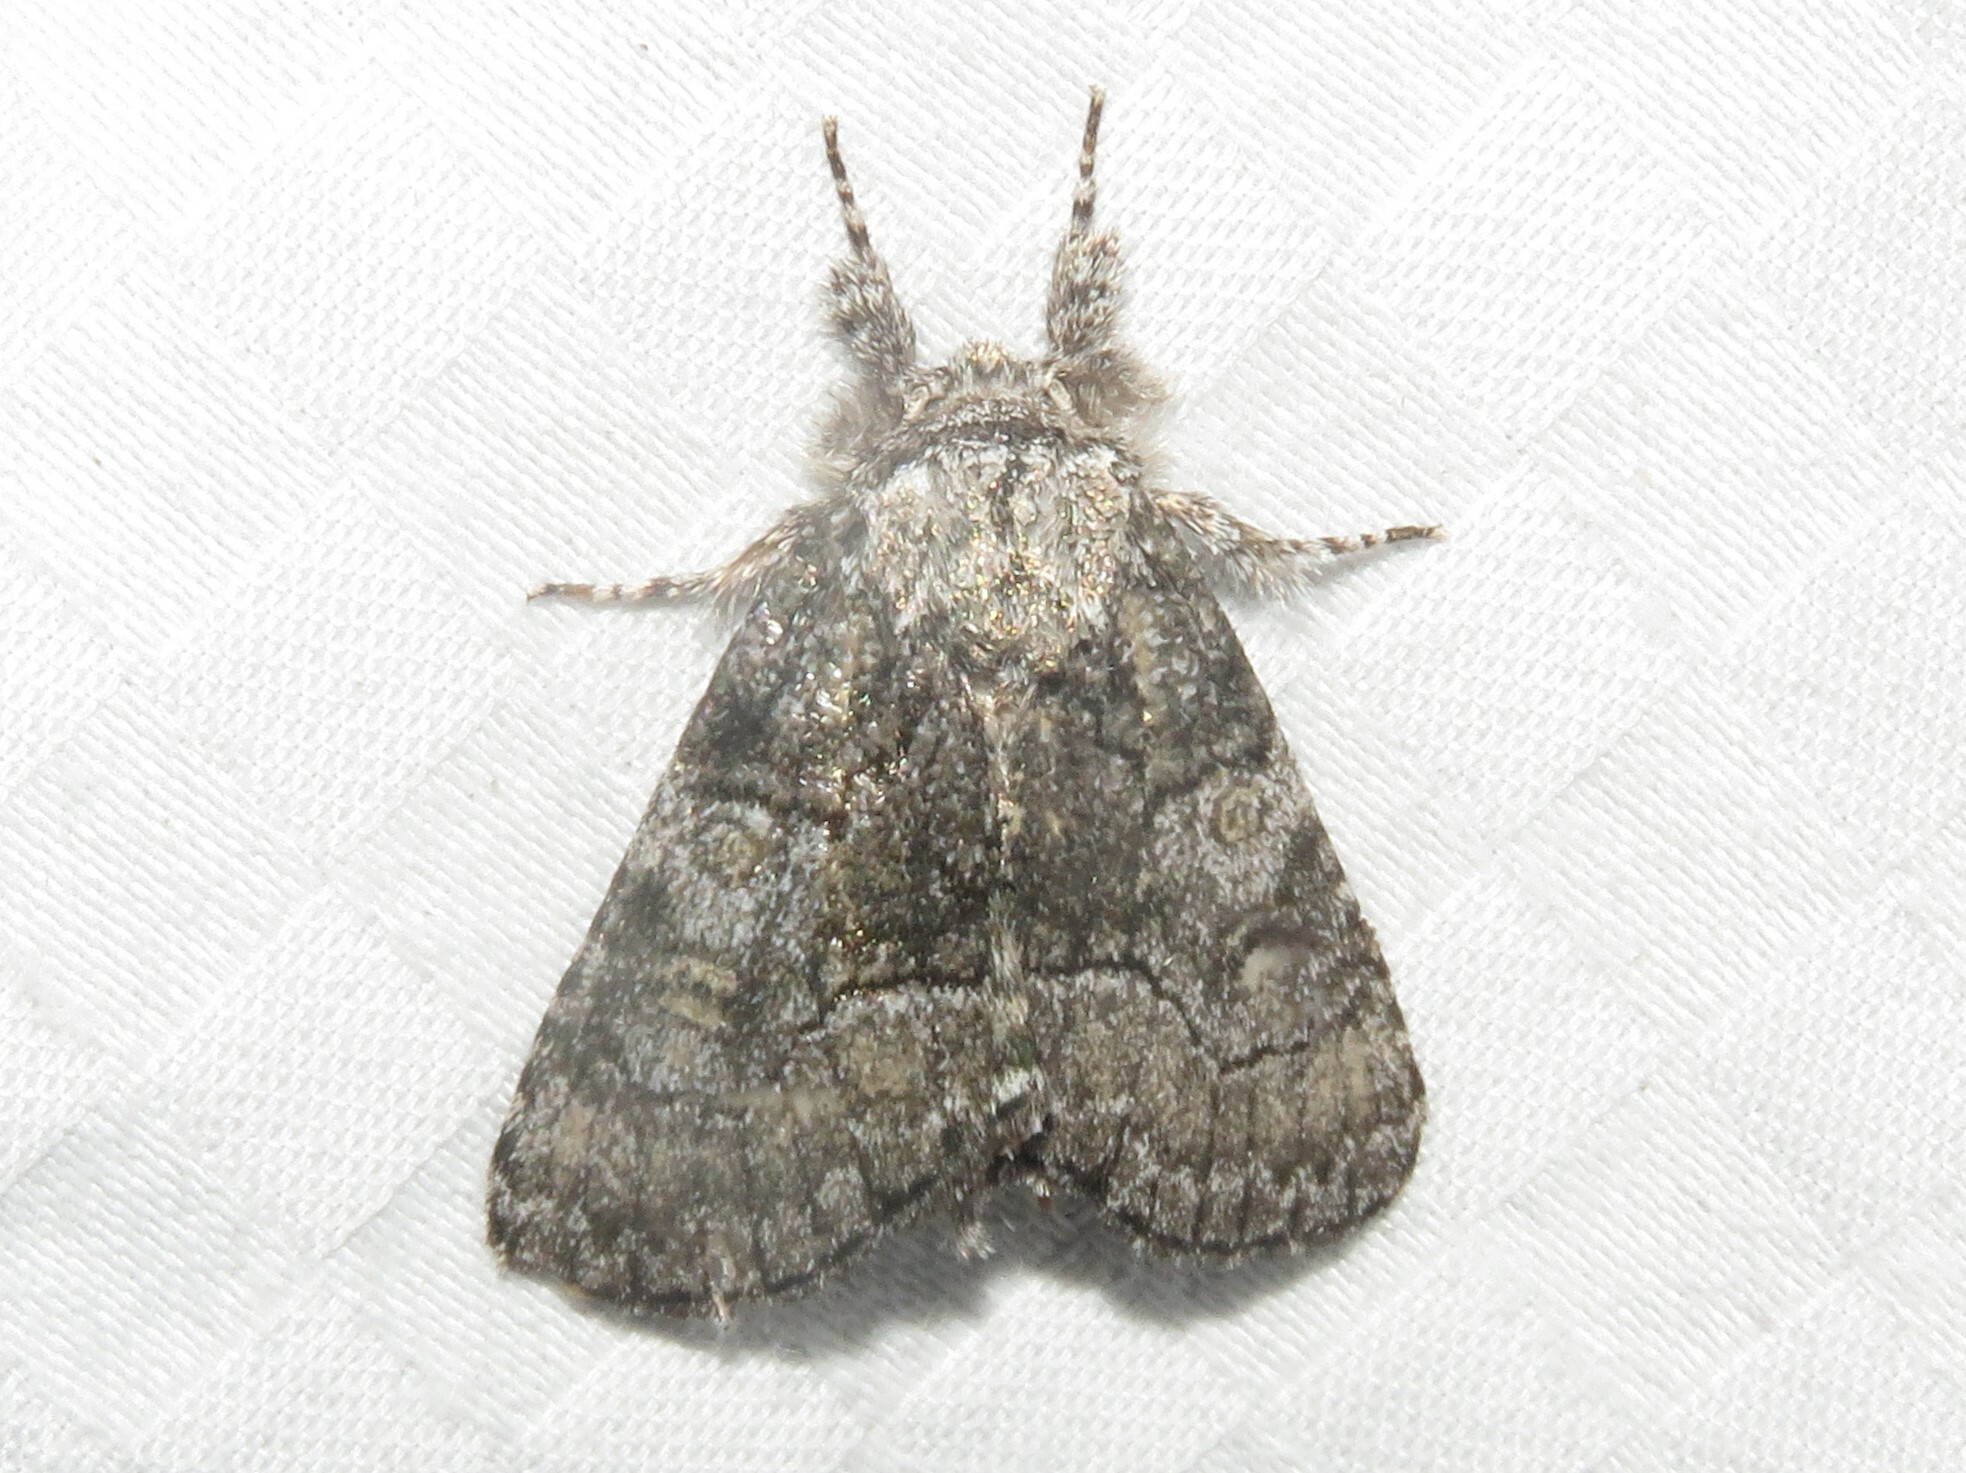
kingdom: Animalia
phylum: Arthropoda
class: Insecta
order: Lepidoptera
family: Noctuidae
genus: Raphia
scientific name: Raphia frater
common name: Brother
